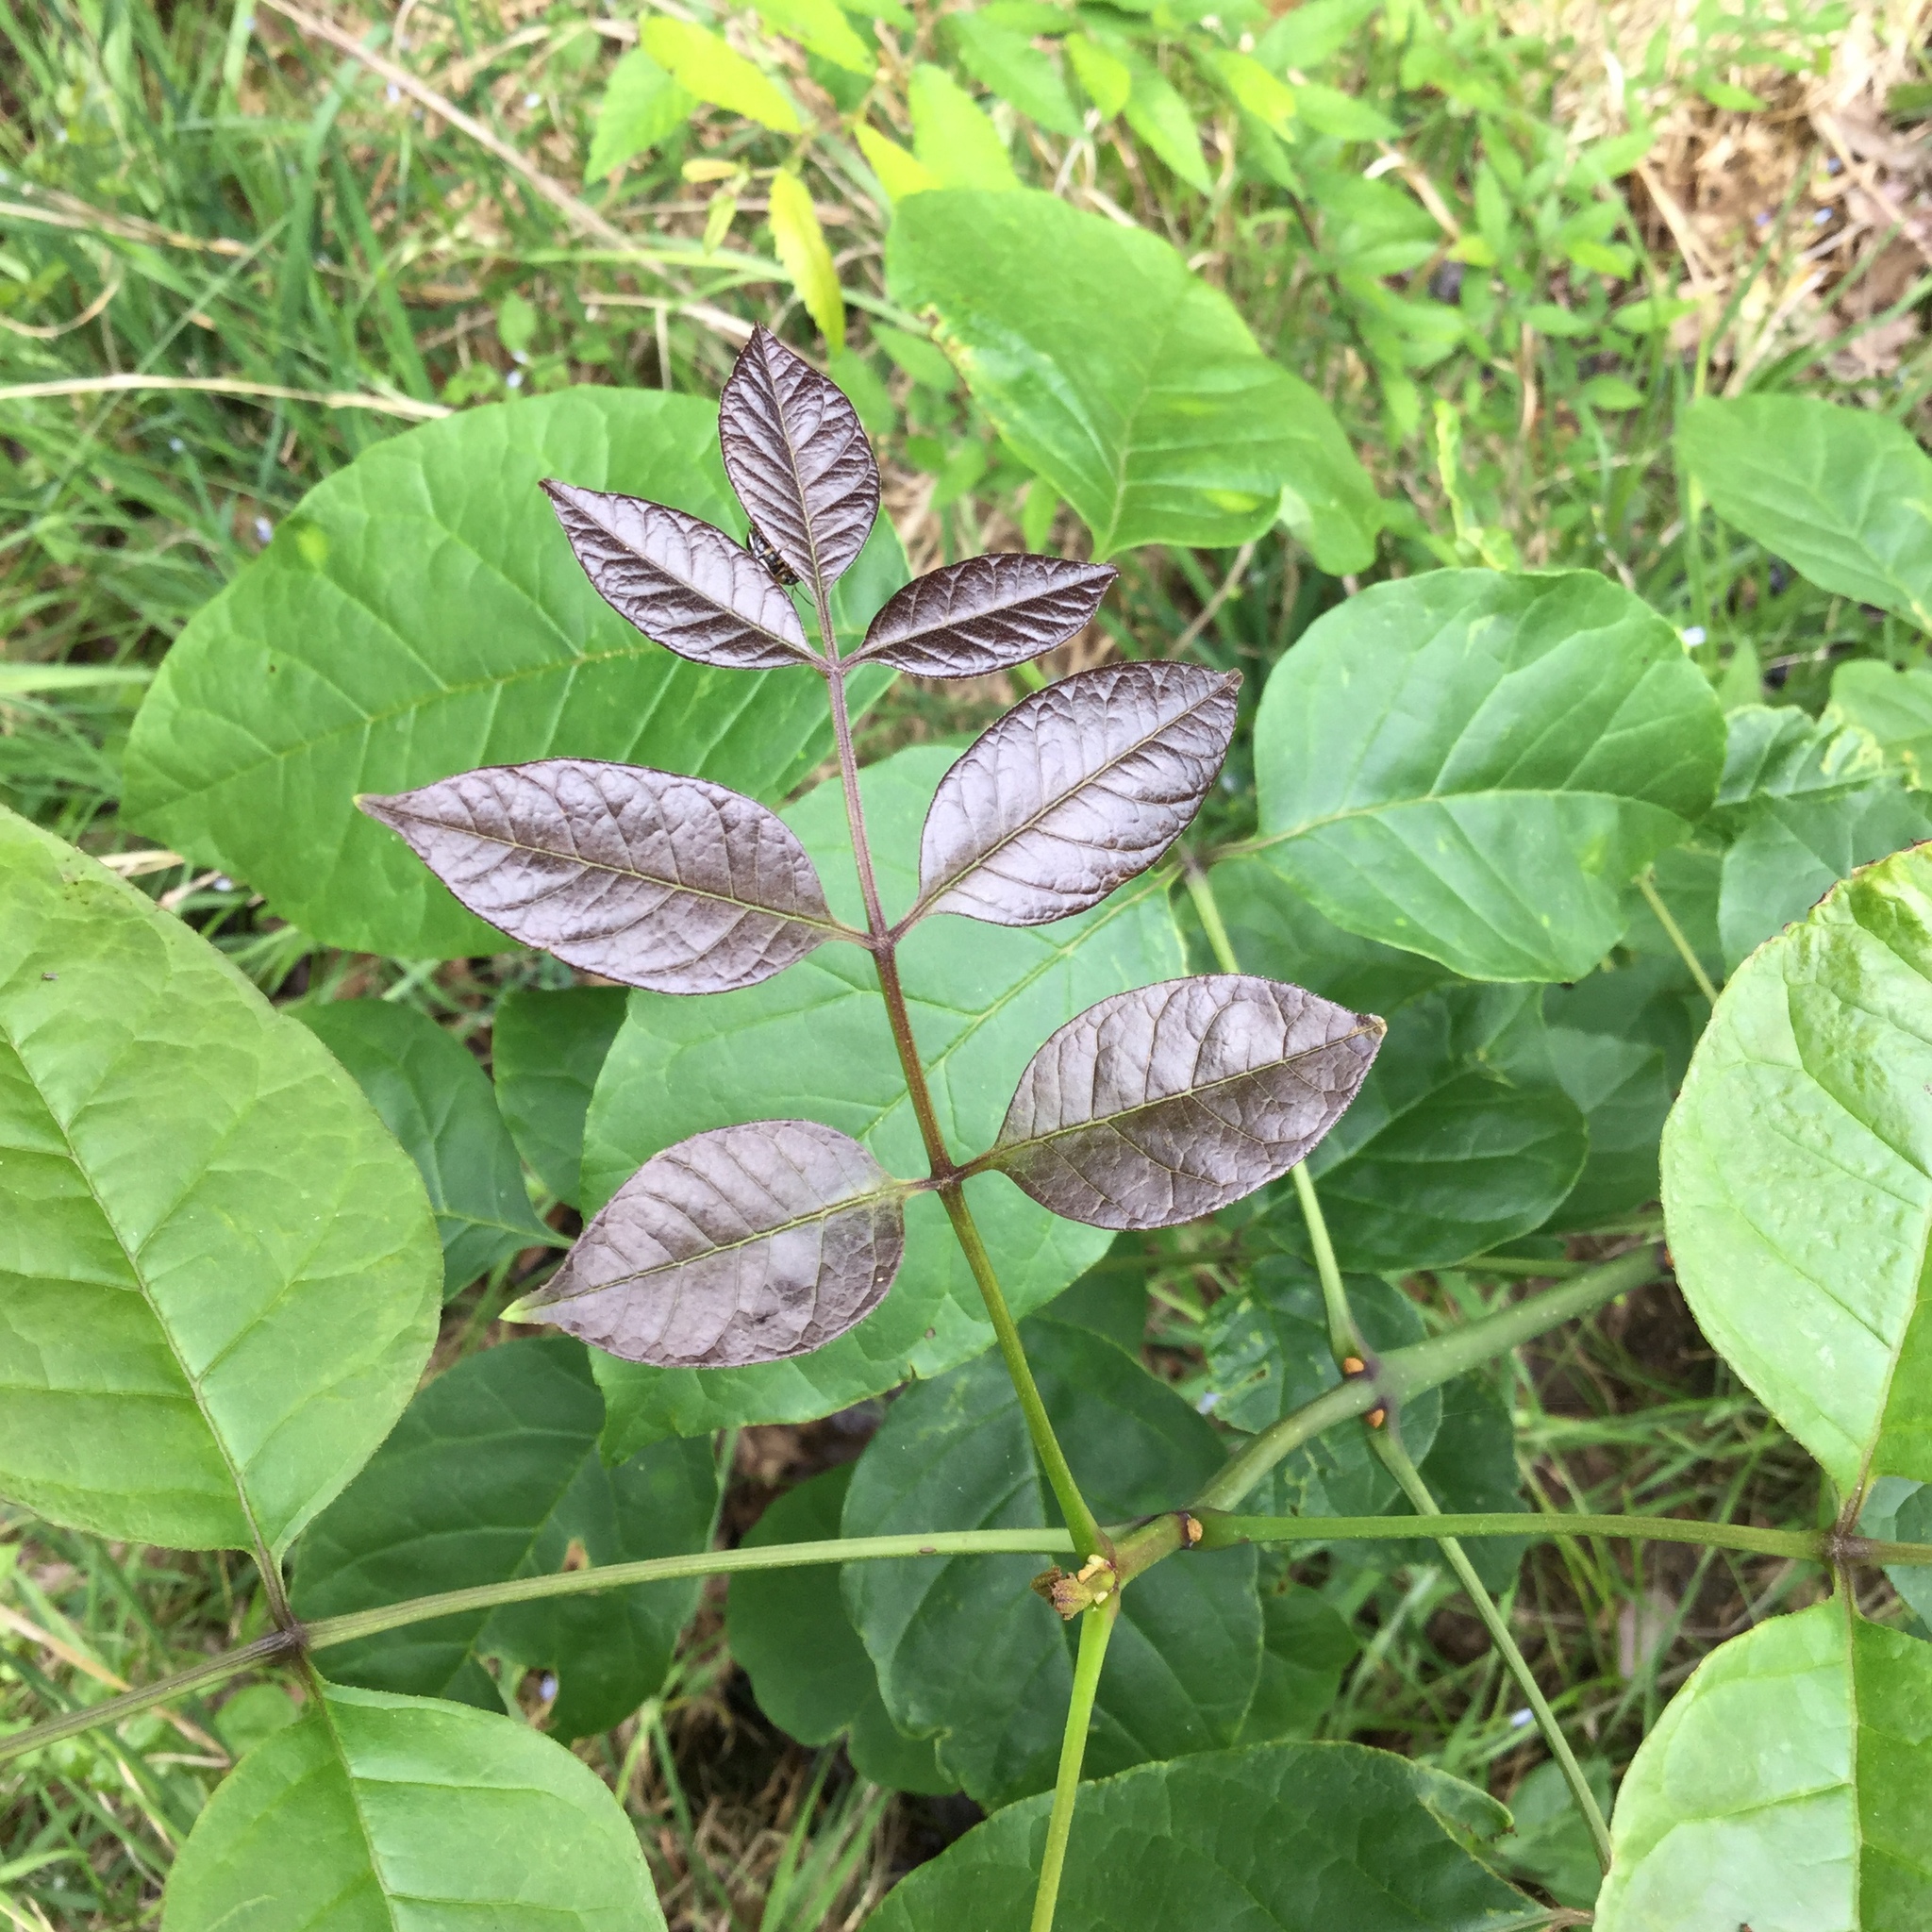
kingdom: Plantae
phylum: Tracheophyta
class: Magnoliopsida
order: Lamiales
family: Oleaceae
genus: Fraxinus
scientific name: Fraxinus americana
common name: White ash
